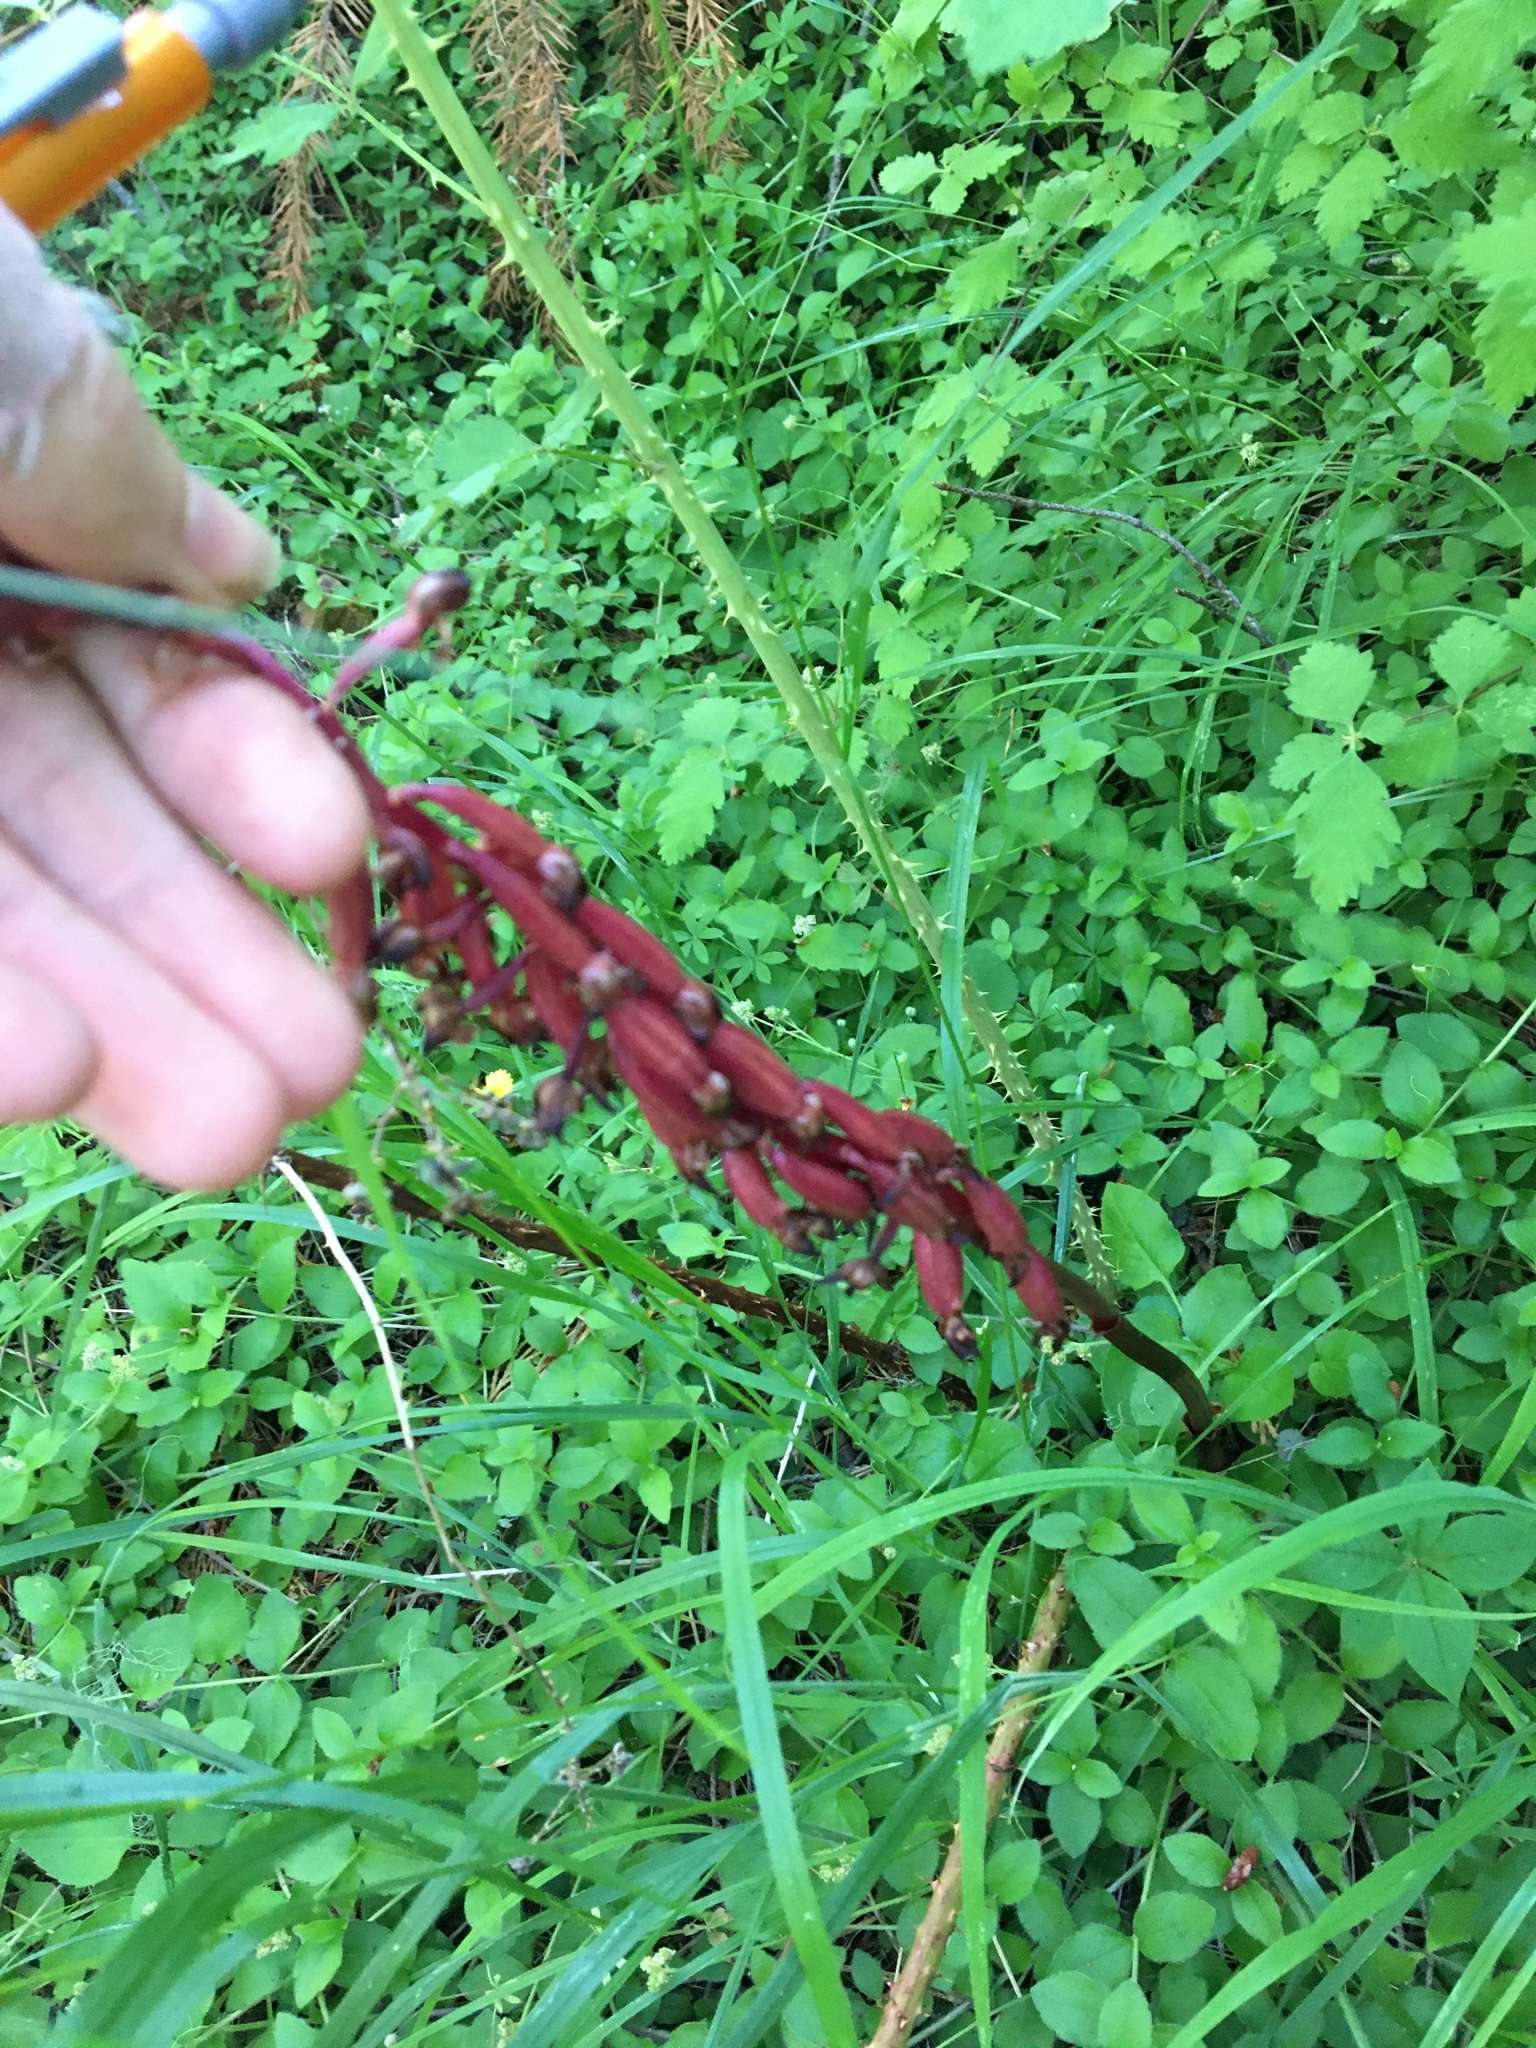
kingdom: Plantae
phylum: Tracheophyta
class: Liliopsida
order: Asparagales
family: Orchidaceae
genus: Corallorhiza
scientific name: Corallorhiza maculata
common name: Spotted coralroot
